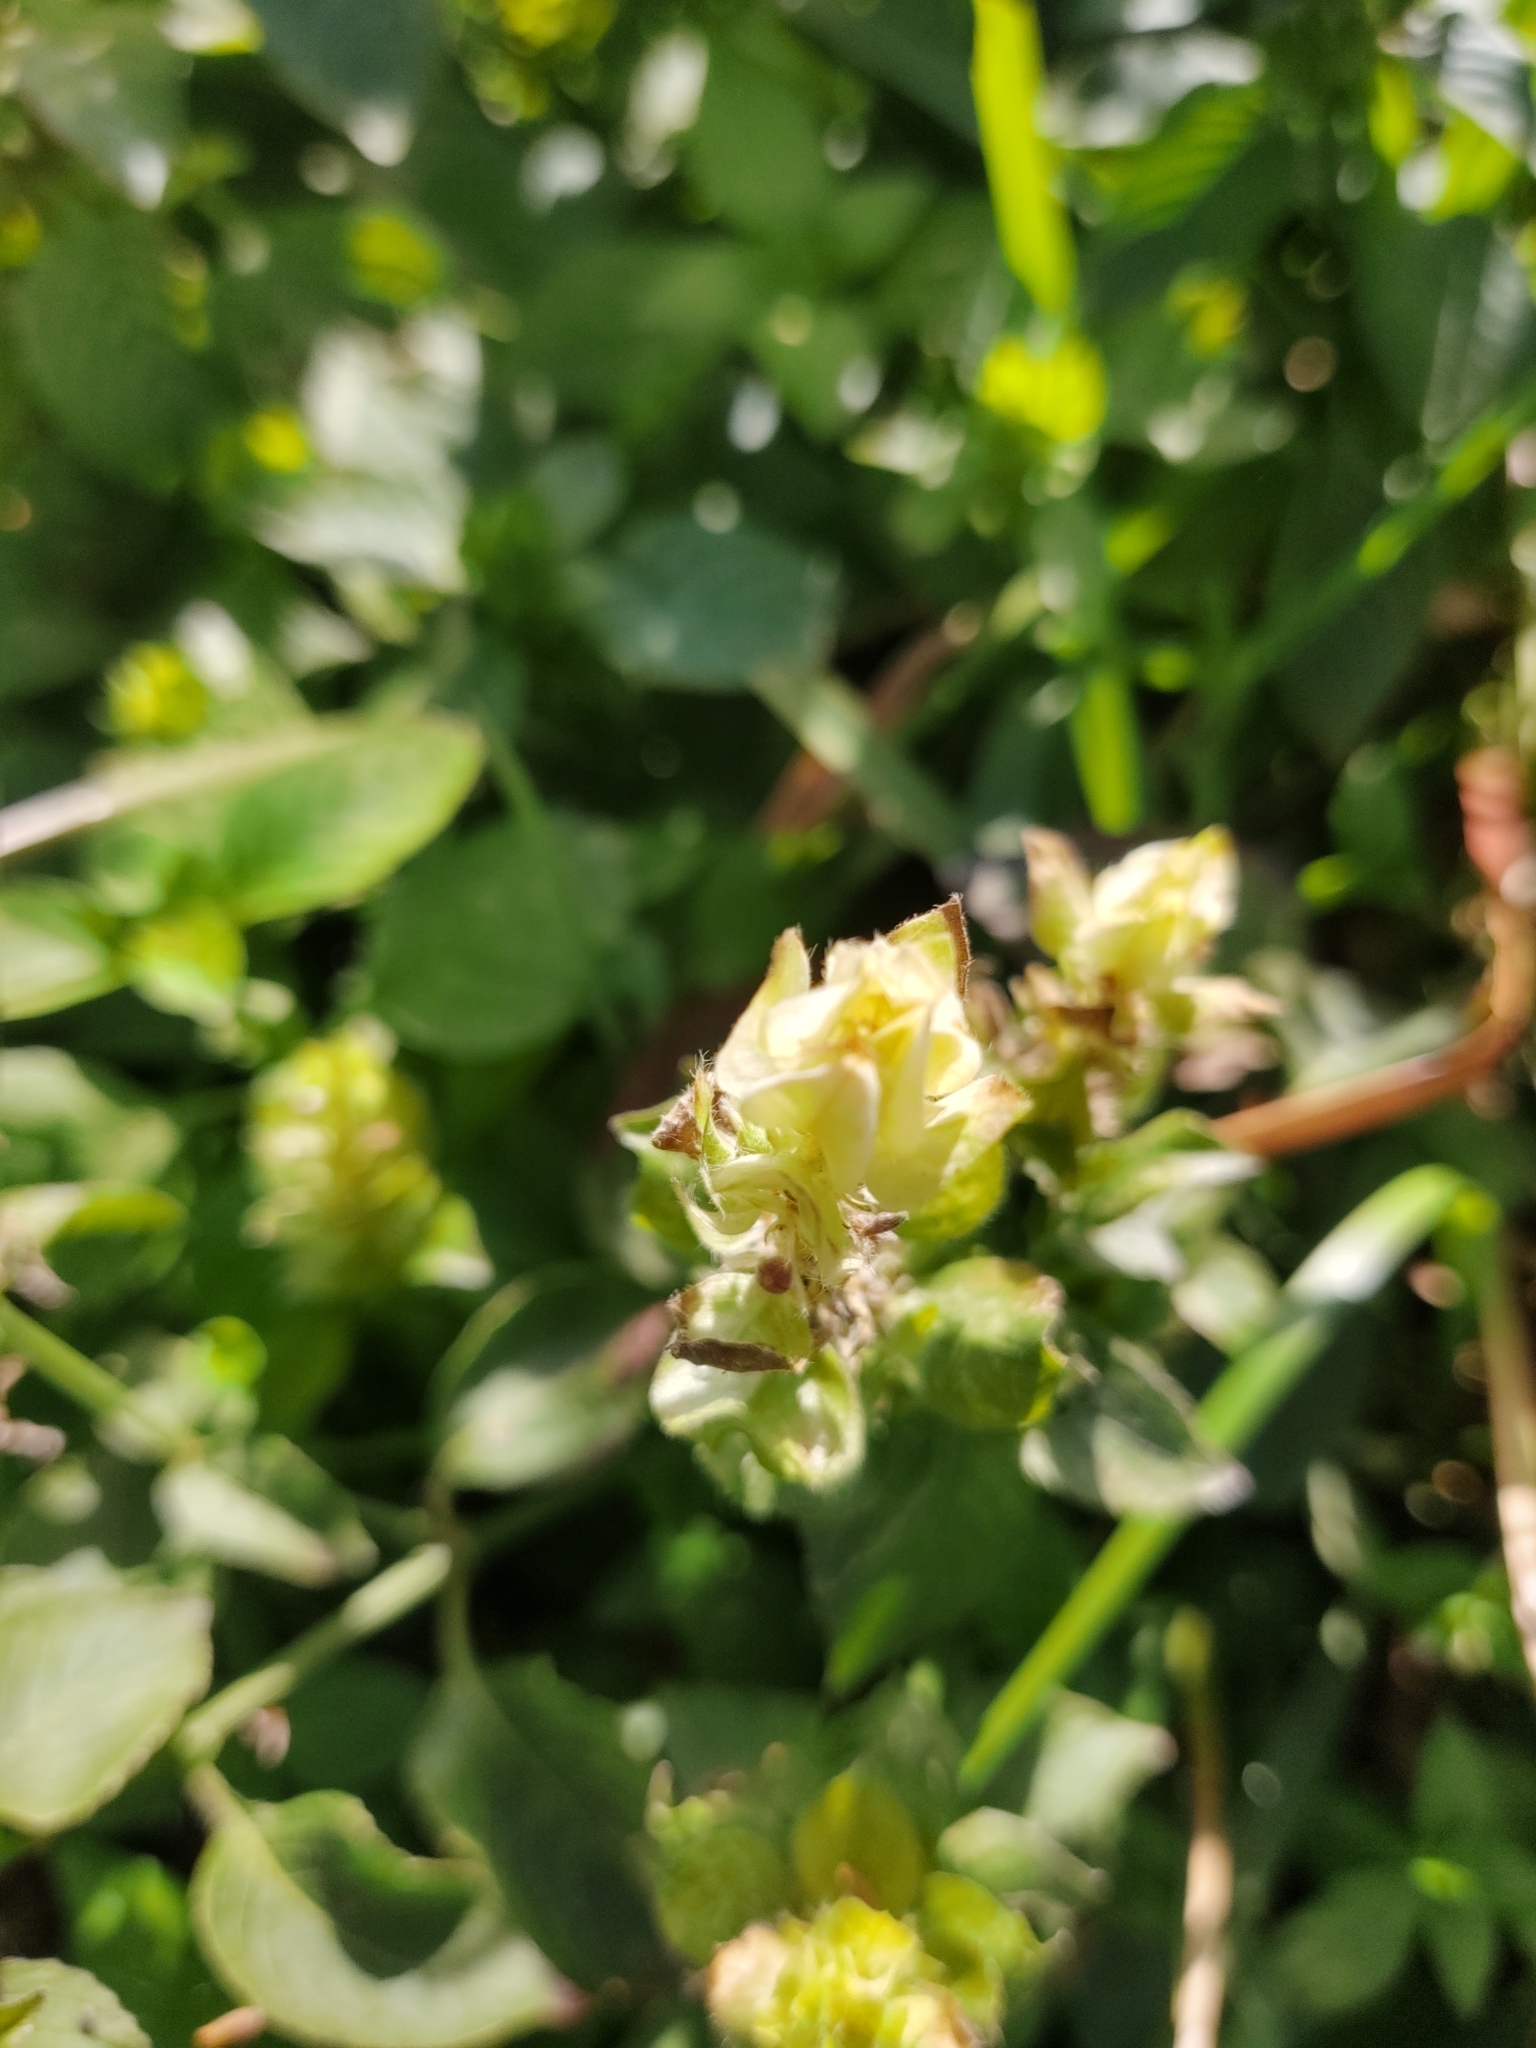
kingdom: Plantae
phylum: Tracheophyta
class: Magnoliopsida
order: Lamiales
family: Acanthaceae
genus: Ruellia
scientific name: Ruellia blechum
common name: Browne's blechum
